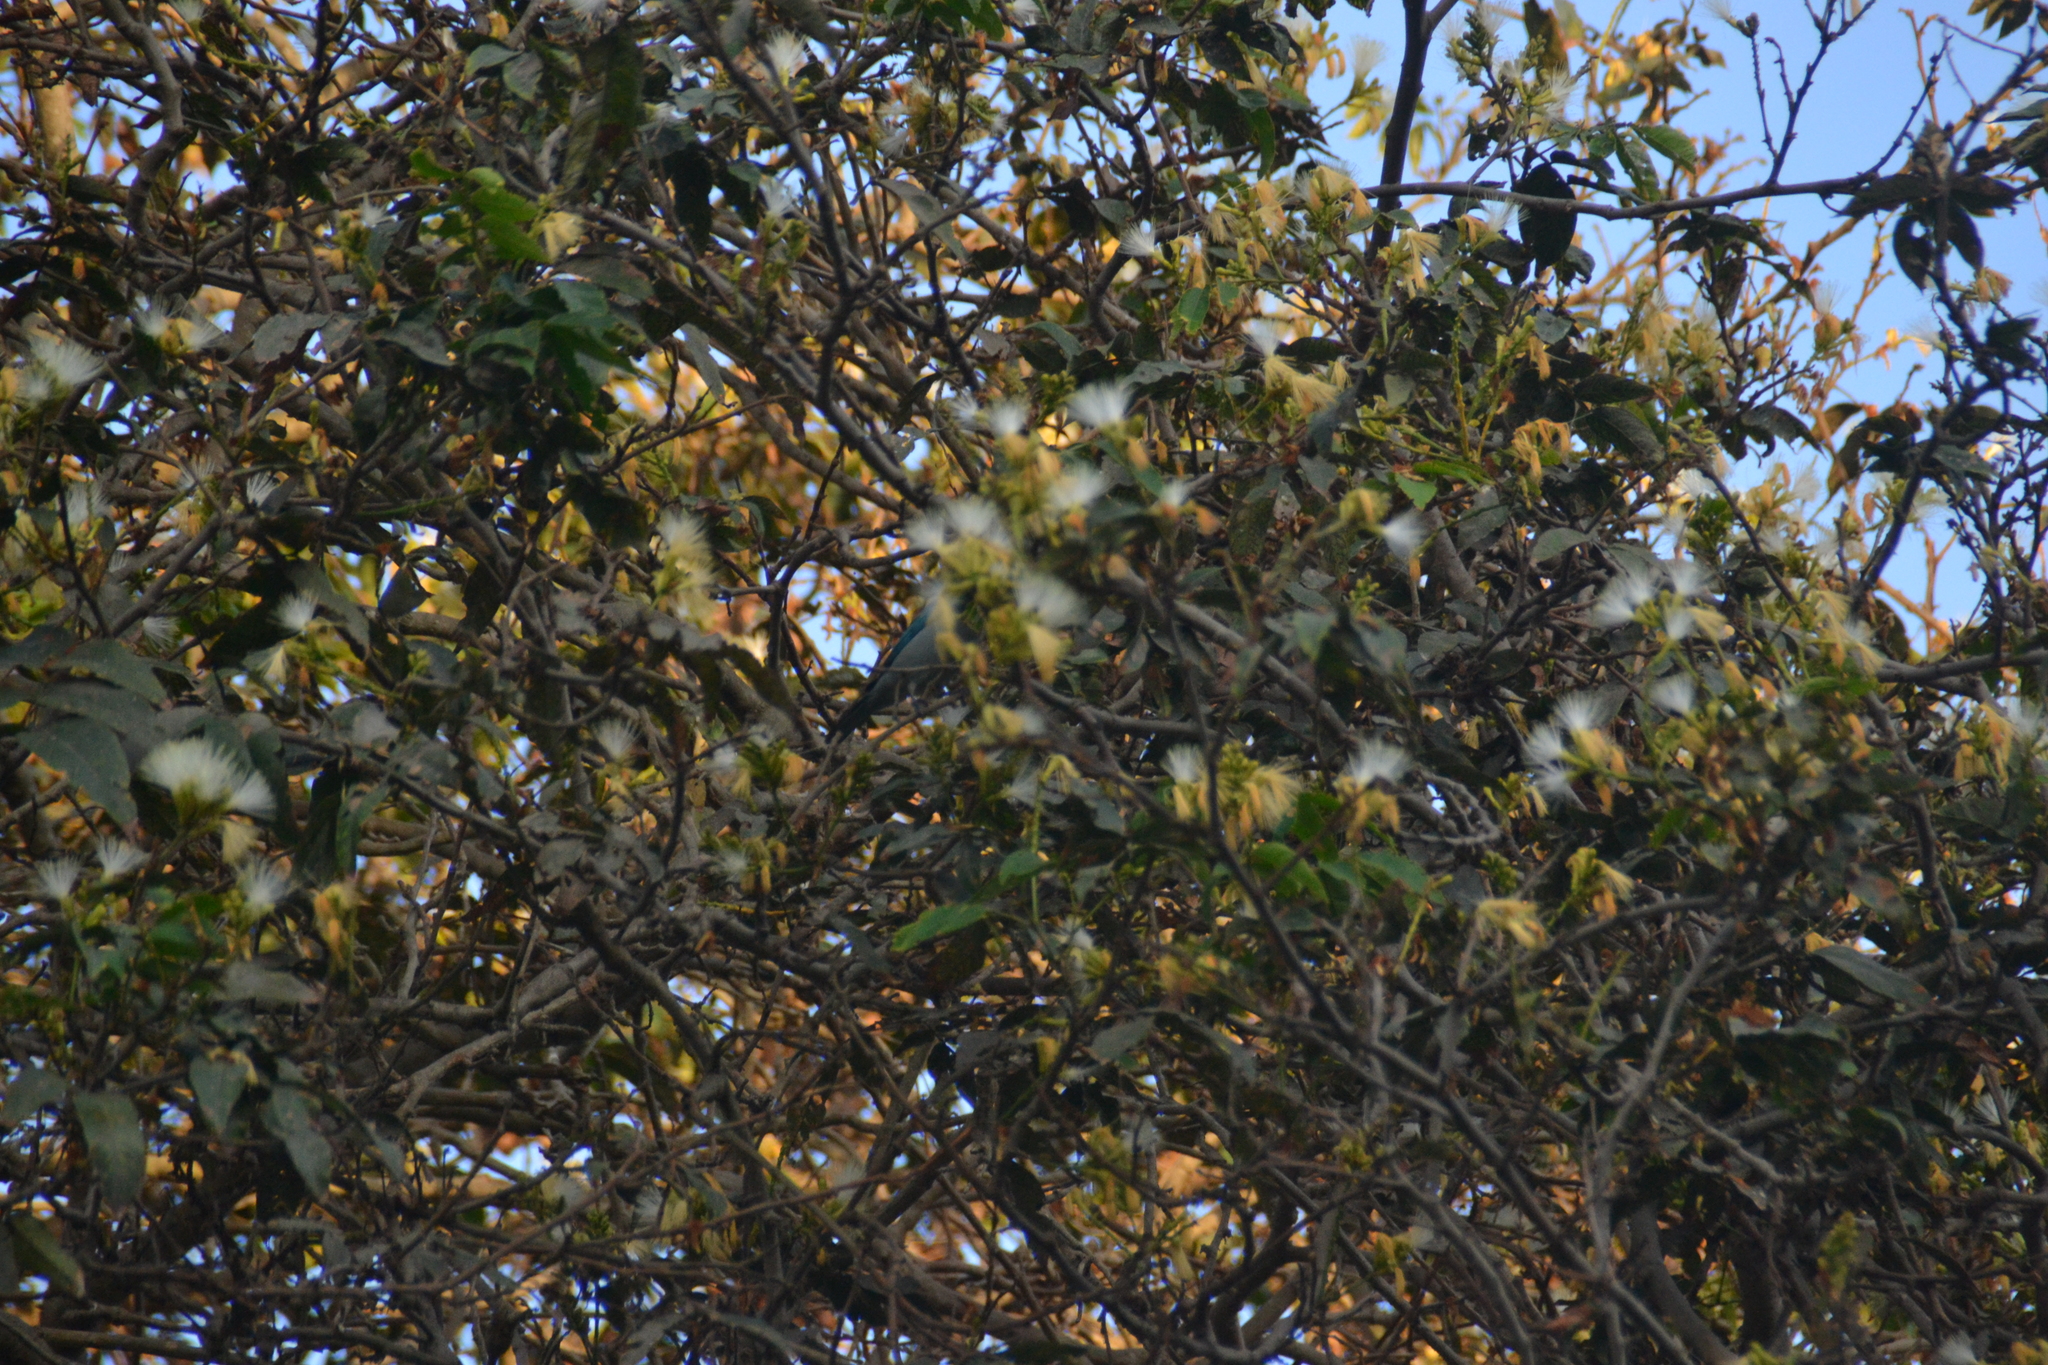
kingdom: Animalia
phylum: Chordata
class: Aves
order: Passeriformes
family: Thraupidae
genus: Thraupis
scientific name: Thraupis episcopus
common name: Blue-grey tanager
